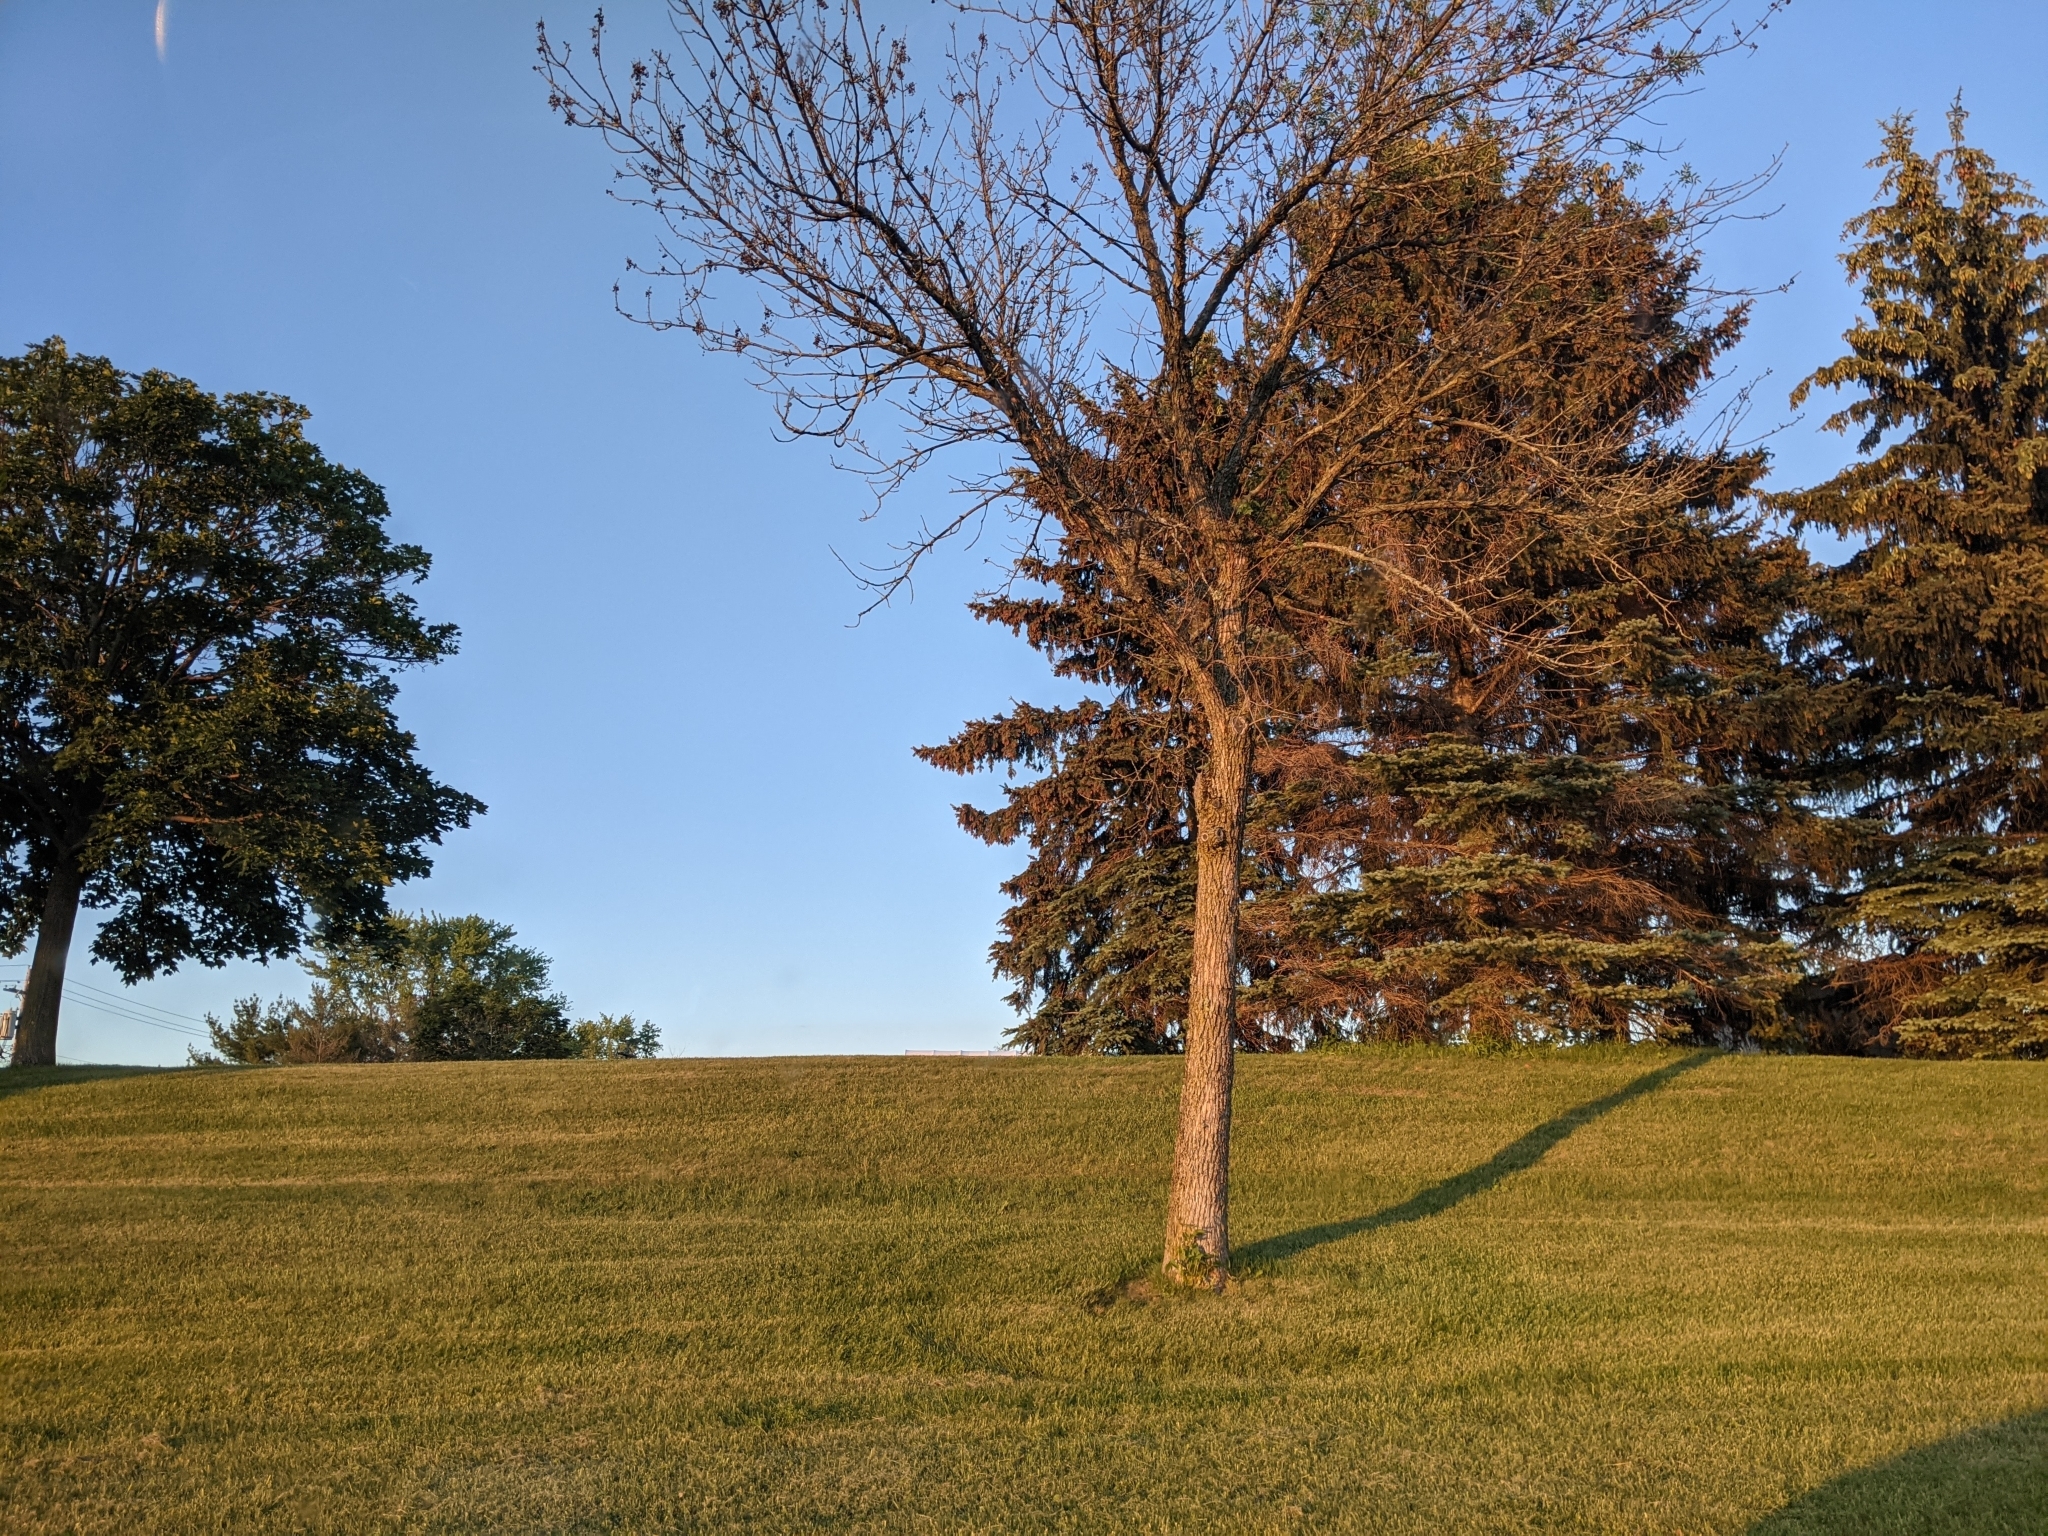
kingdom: Animalia
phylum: Arthropoda
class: Insecta
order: Coleoptera
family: Buprestidae
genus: Agrilus
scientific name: Agrilus planipennis
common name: Emerald ash borer
